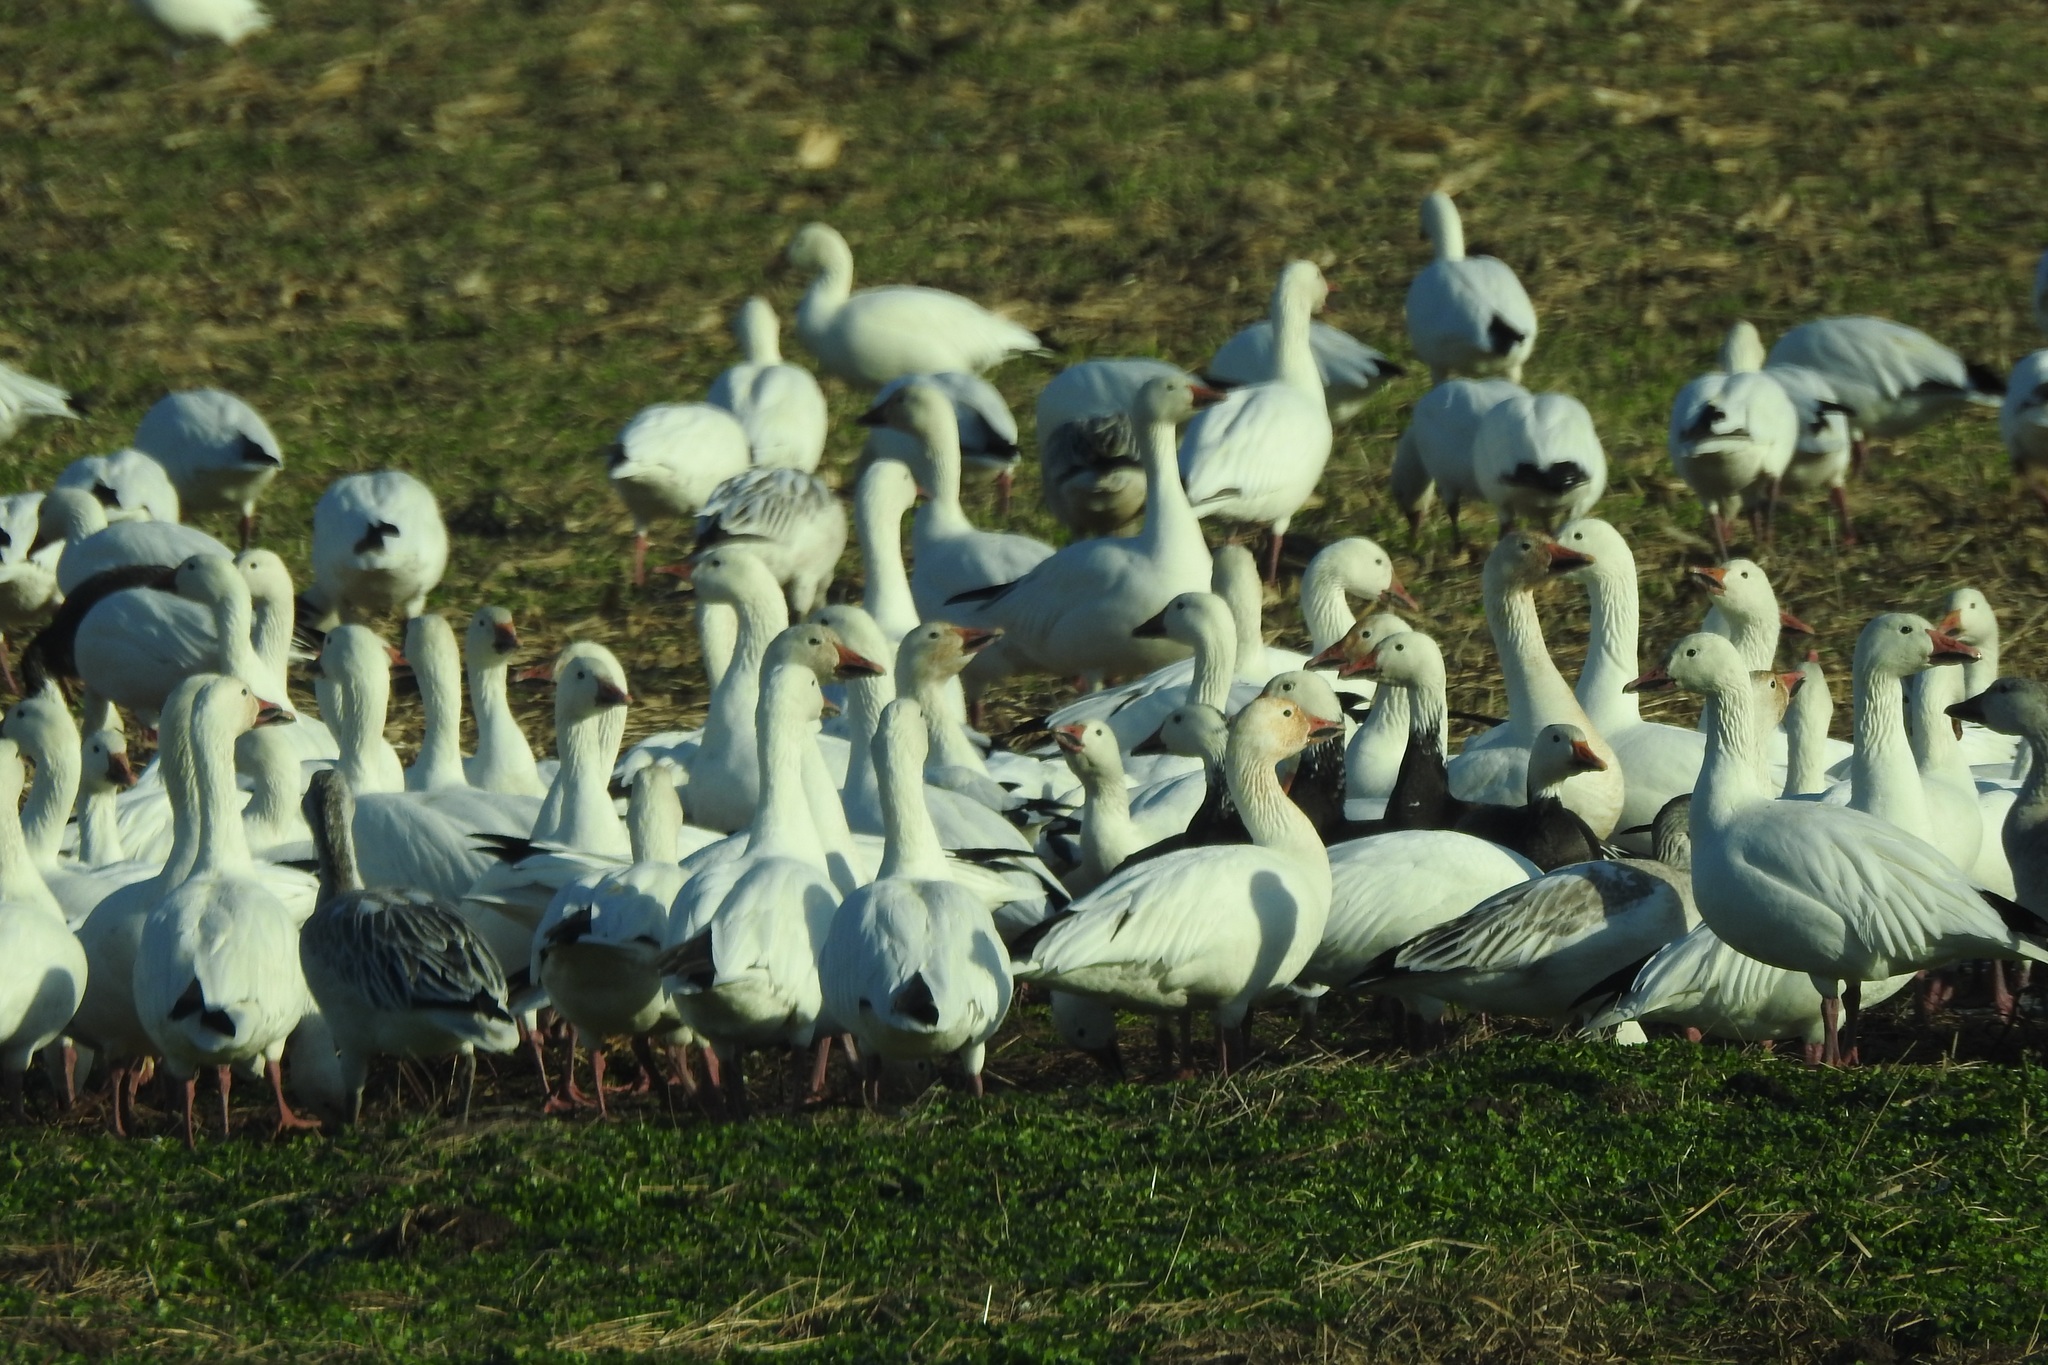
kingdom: Animalia
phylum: Chordata
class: Aves
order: Anseriformes
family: Anatidae
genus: Anser
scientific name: Anser caerulescens
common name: Snow goose
